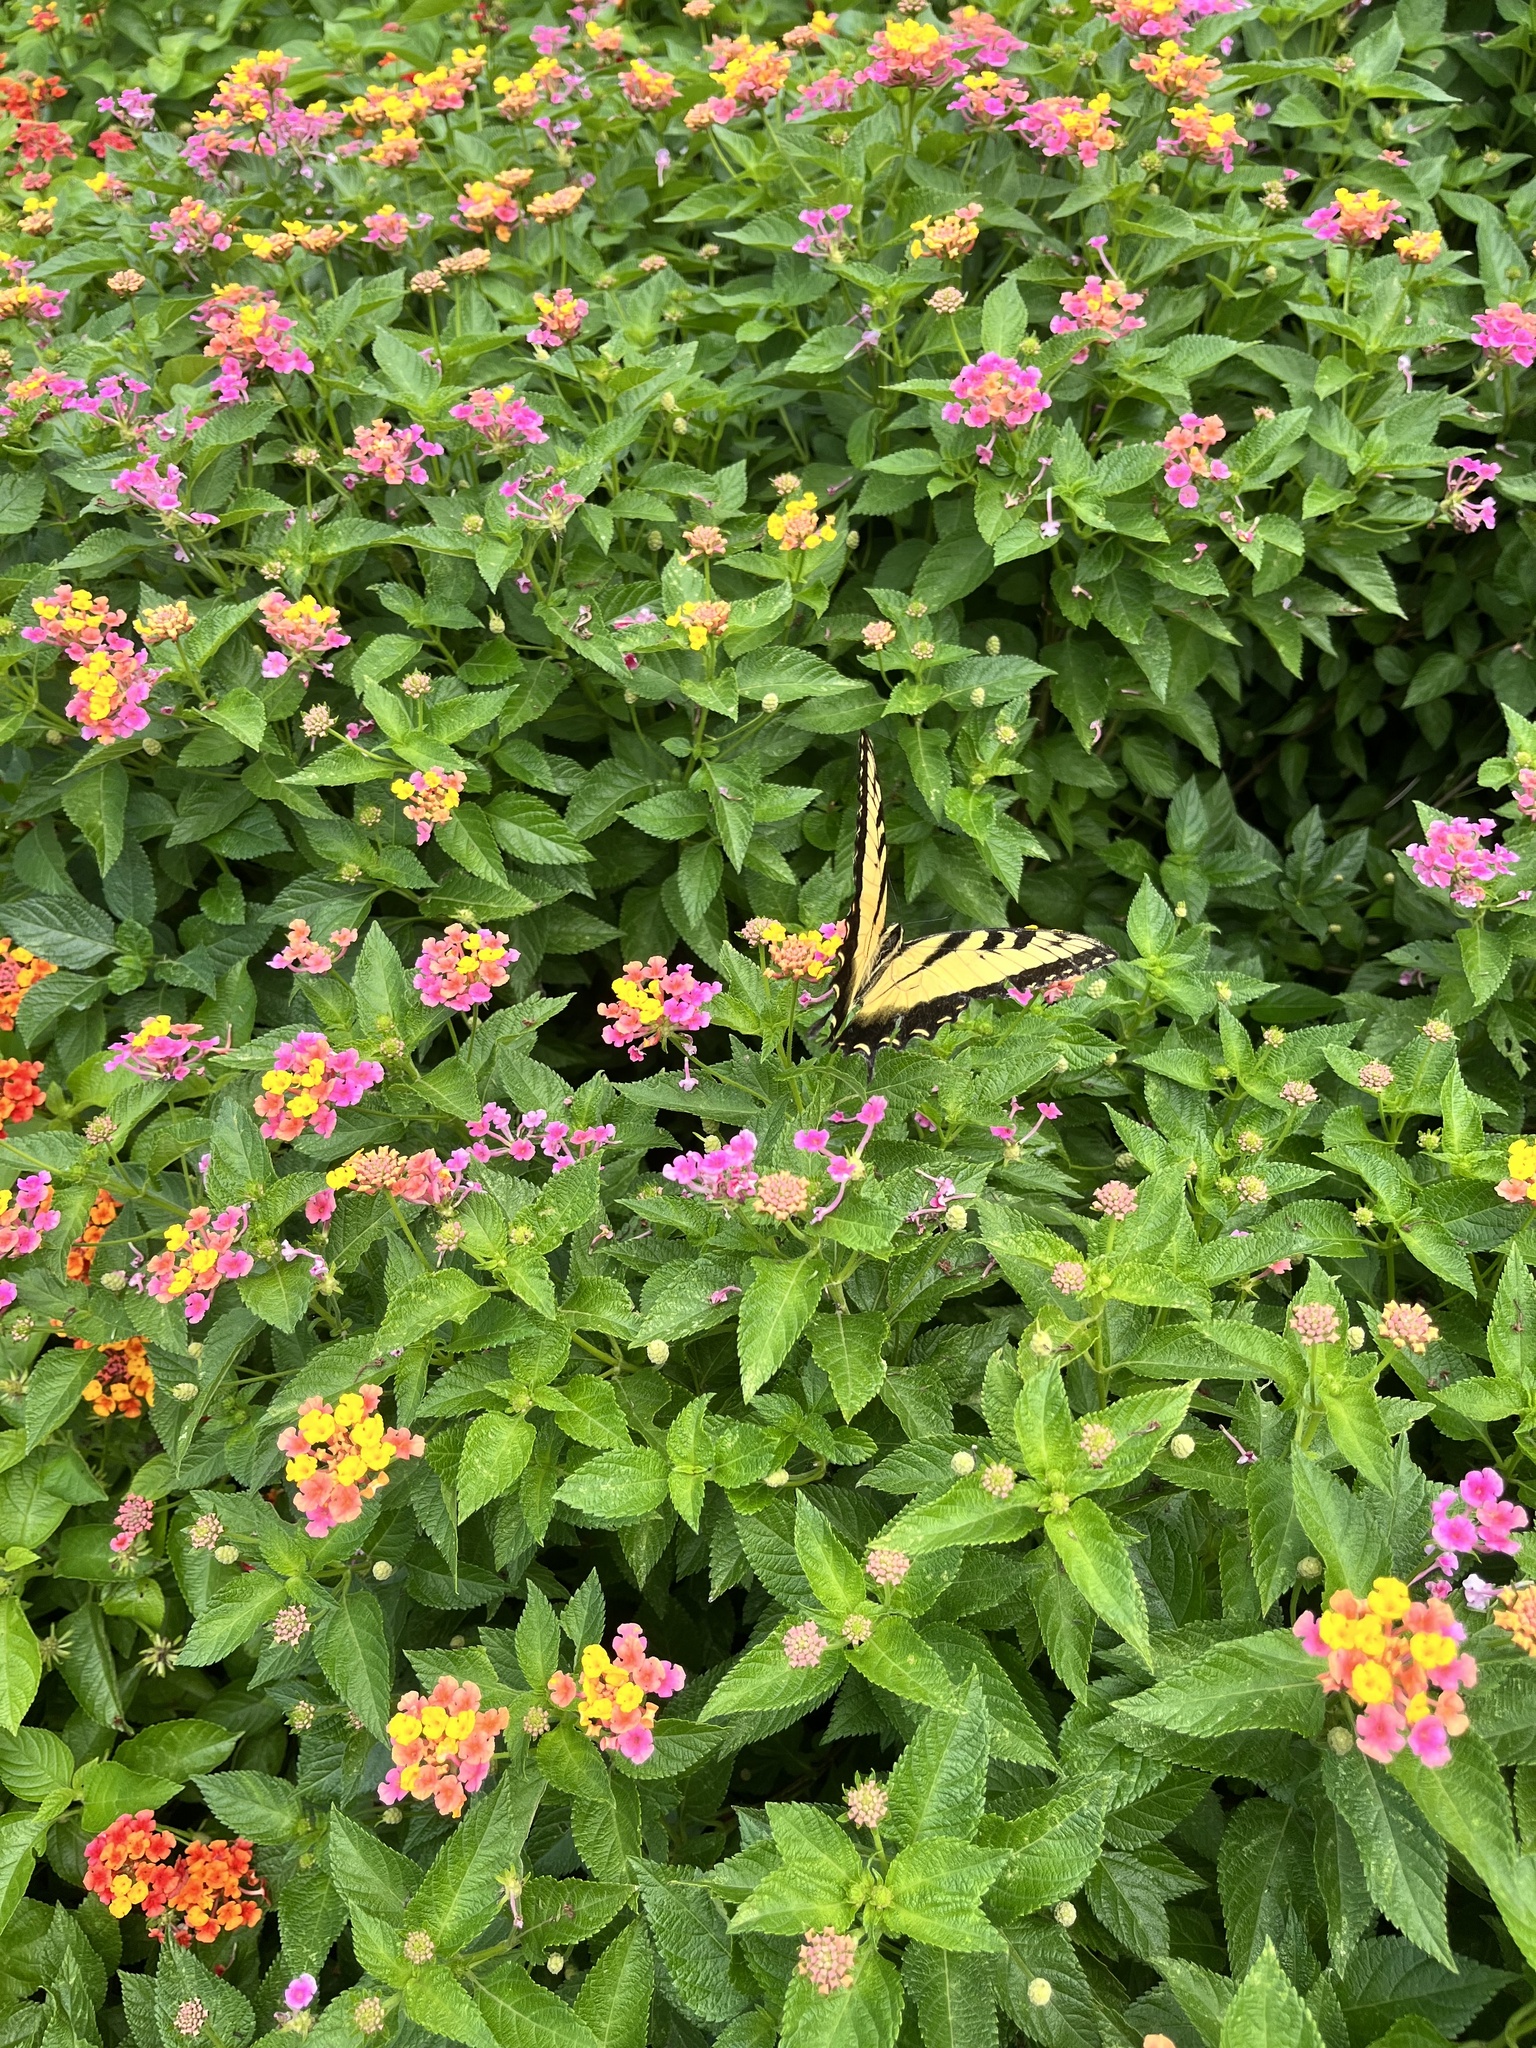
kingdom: Animalia
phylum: Arthropoda
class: Insecta
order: Lepidoptera
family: Papilionidae
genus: Papilio
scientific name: Papilio glaucus
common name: Tiger swallowtail
